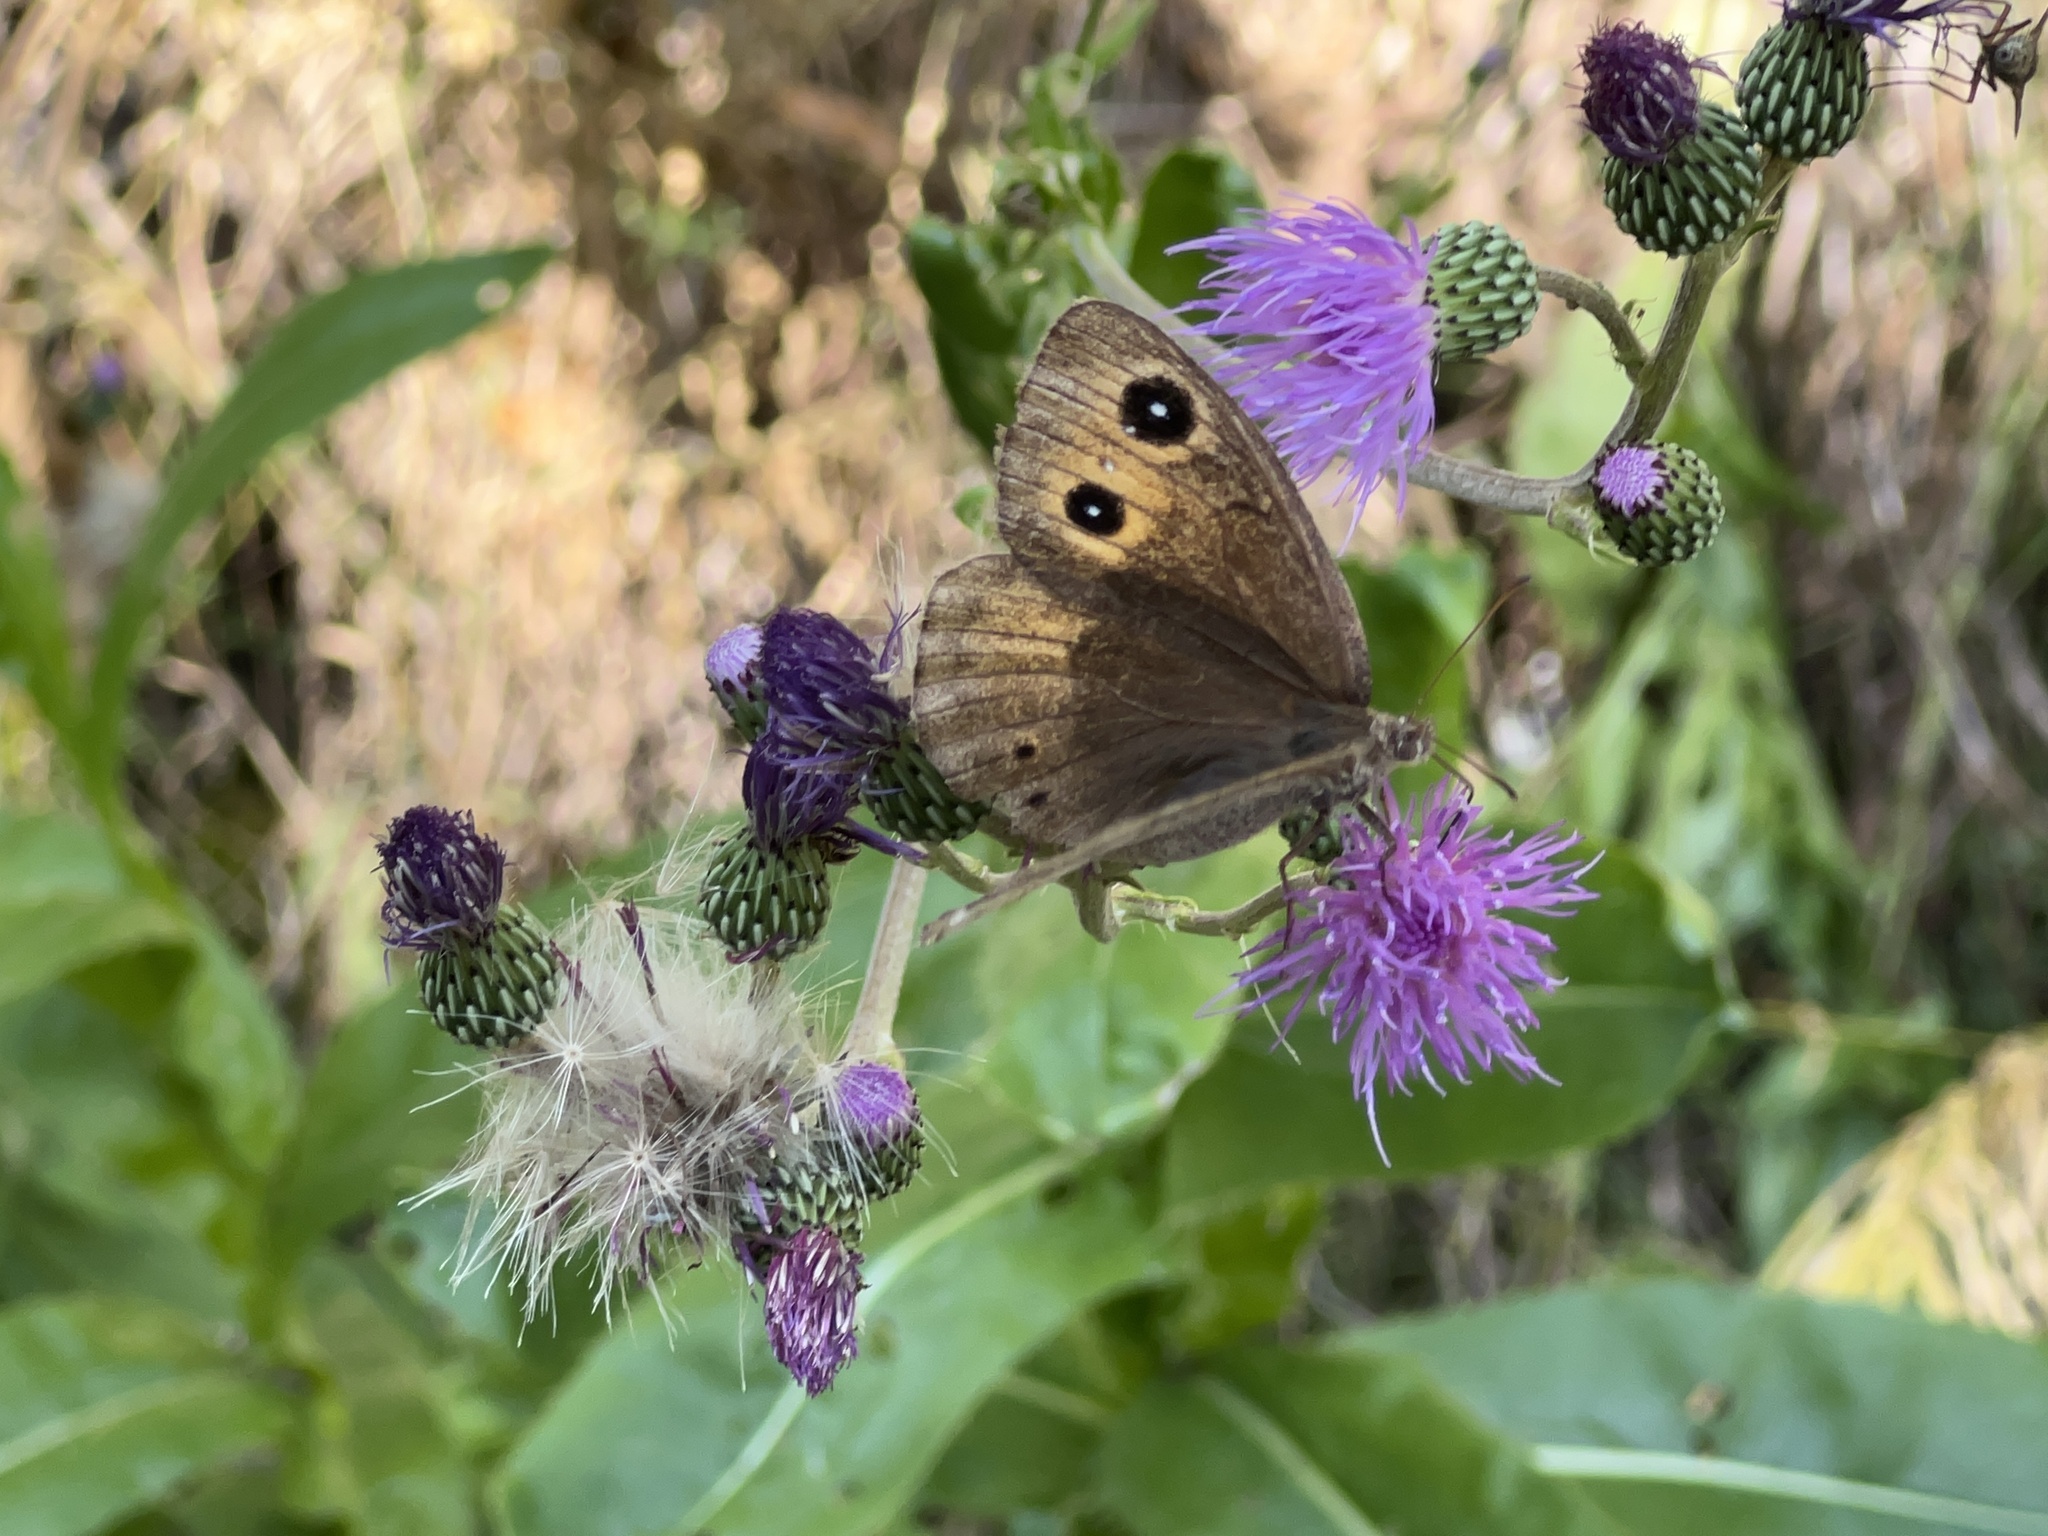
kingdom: Animalia
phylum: Arthropoda
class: Insecta
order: Lepidoptera
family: Nymphalidae
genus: Satyrus
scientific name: Satyrus ferula
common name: Great sooty satyr
